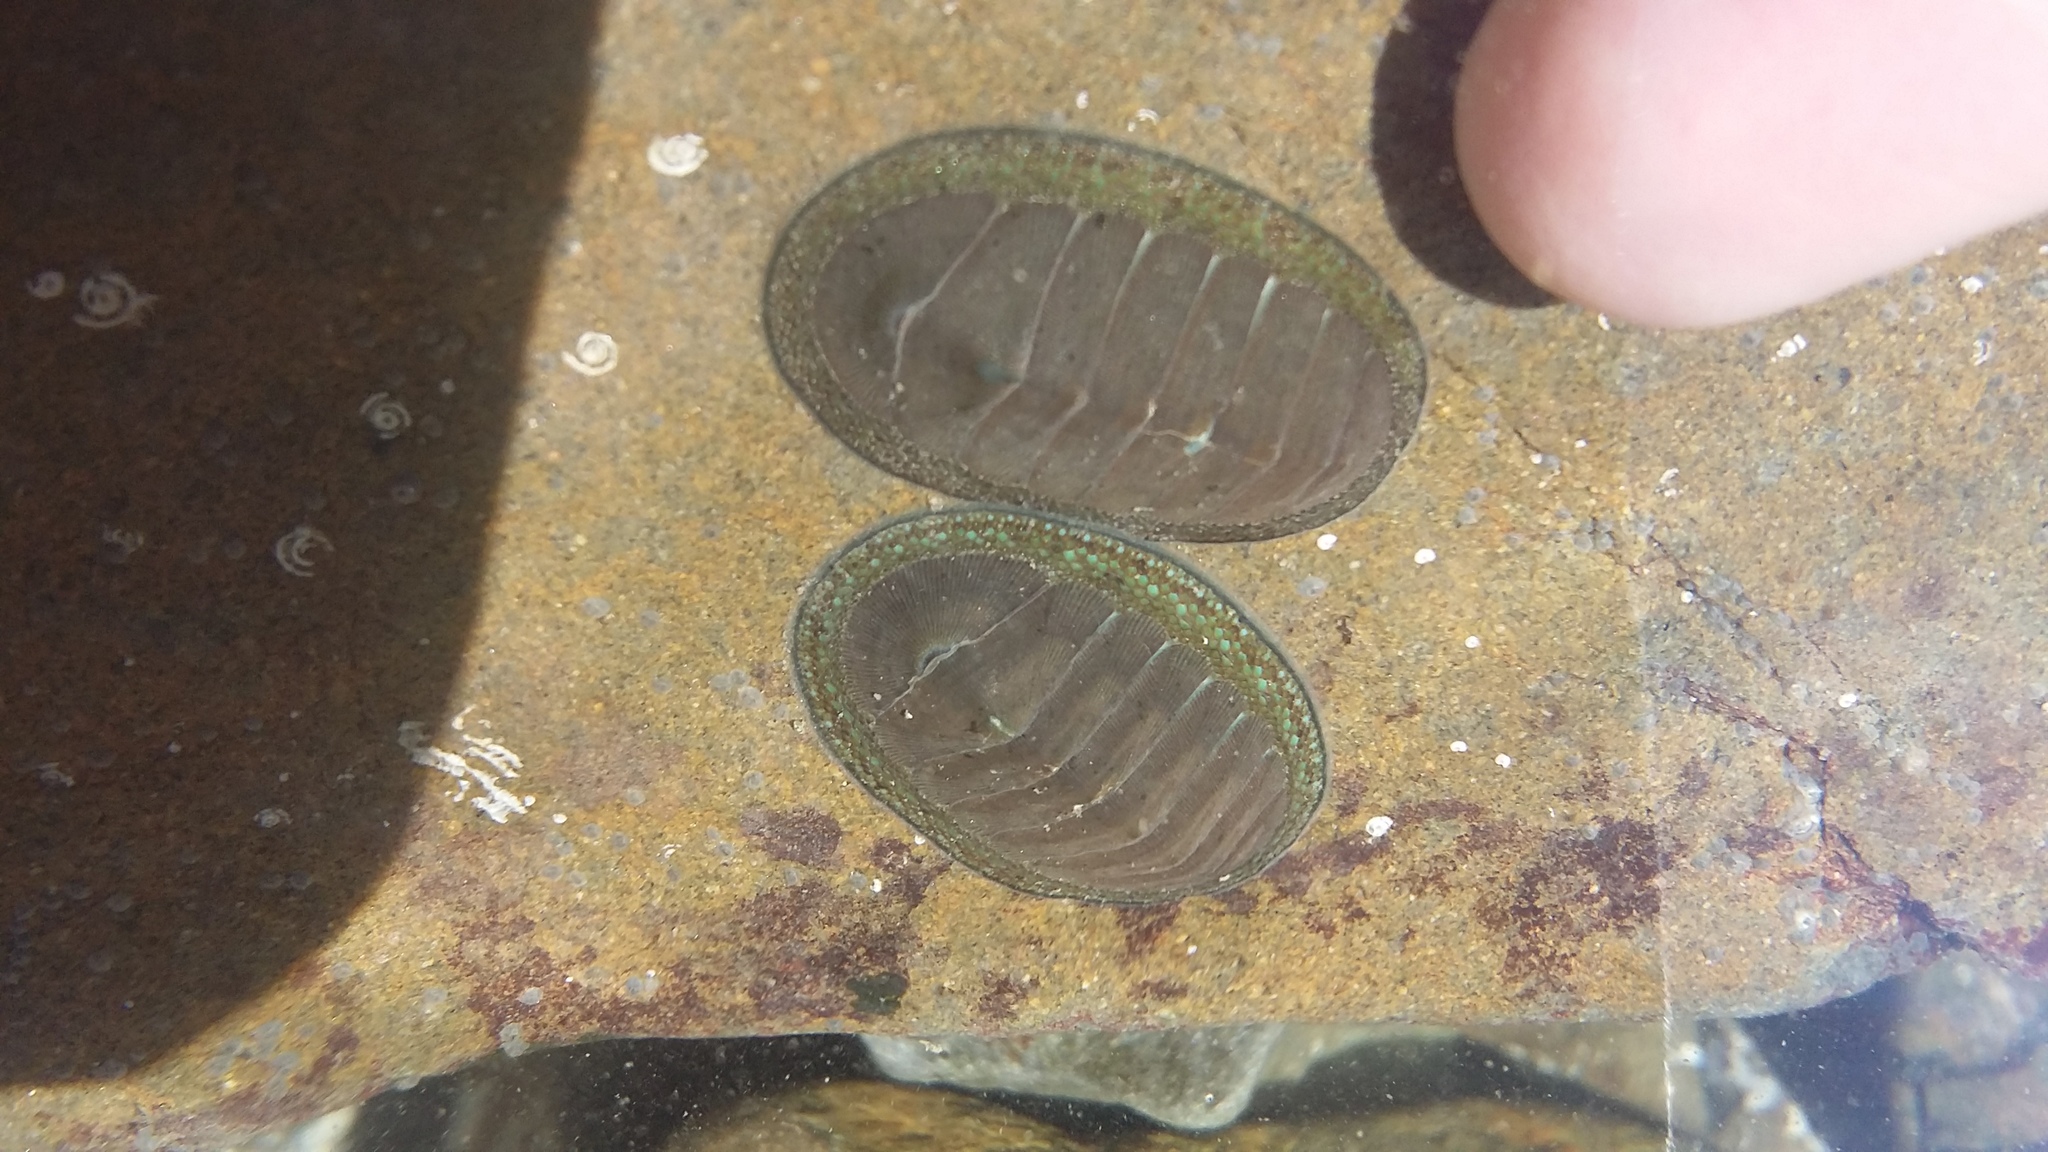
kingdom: Animalia
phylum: Mollusca
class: Polyplacophora
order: Chitonida
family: Chitonidae
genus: Chiton
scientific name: Chiton glaucus
